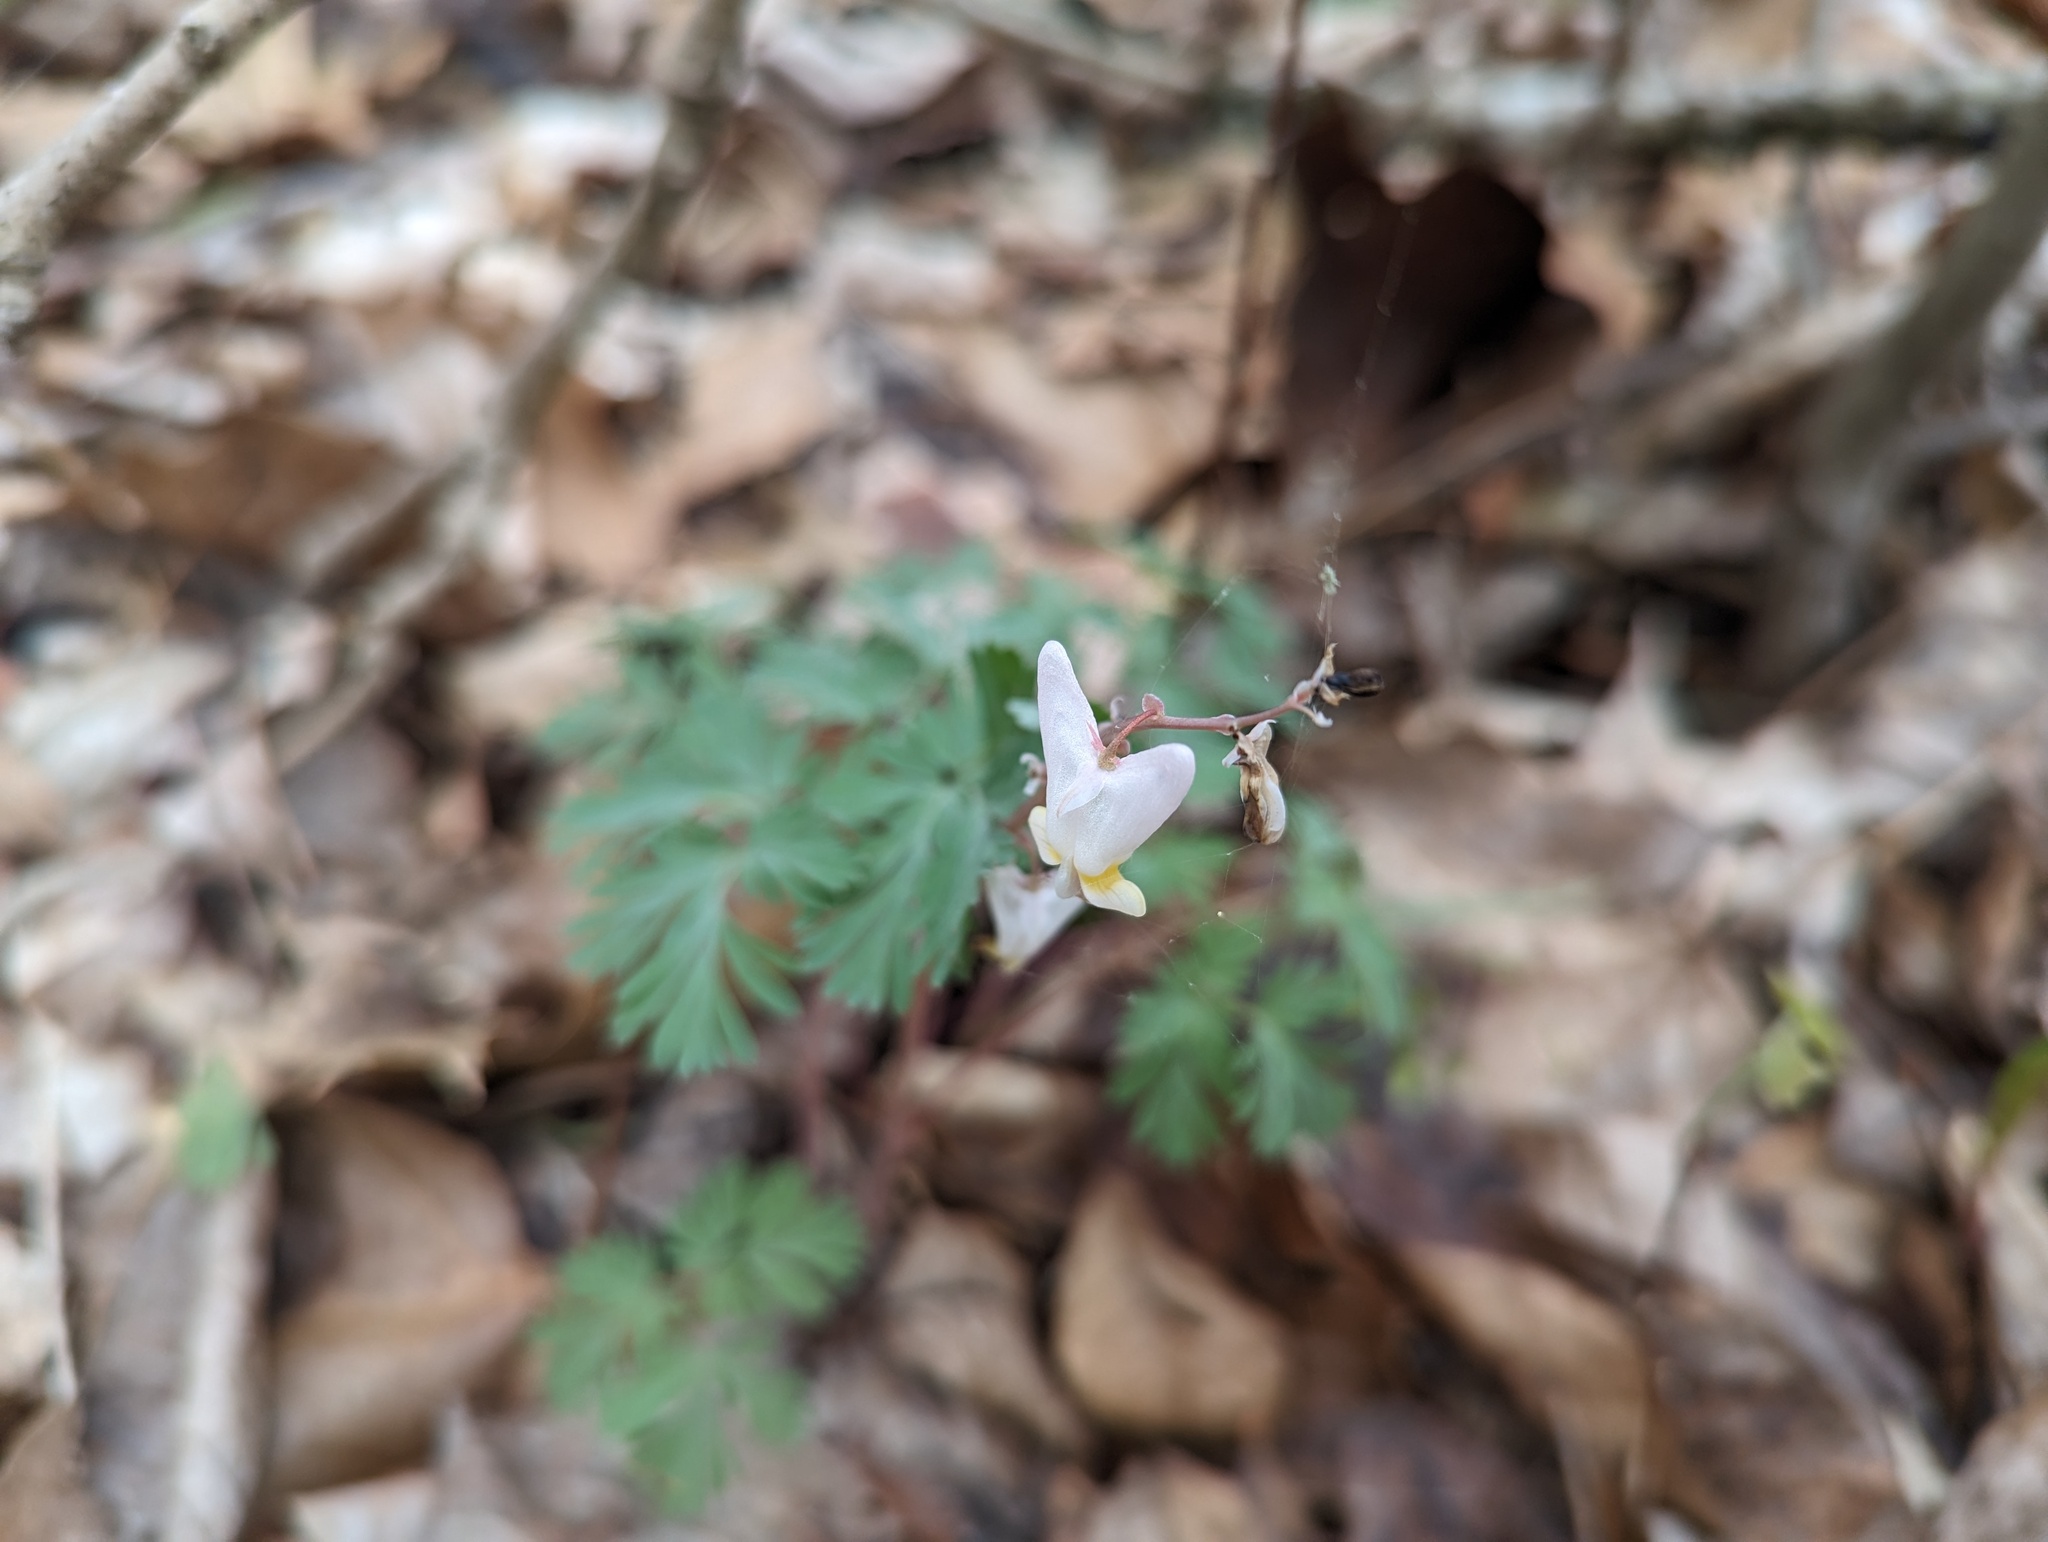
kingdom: Plantae
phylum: Tracheophyta
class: Magnoliopsida
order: Ranunculales
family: Papaveraceae
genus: Dicentra
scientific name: Dicentra cucullaria
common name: Dutchman's breeches
